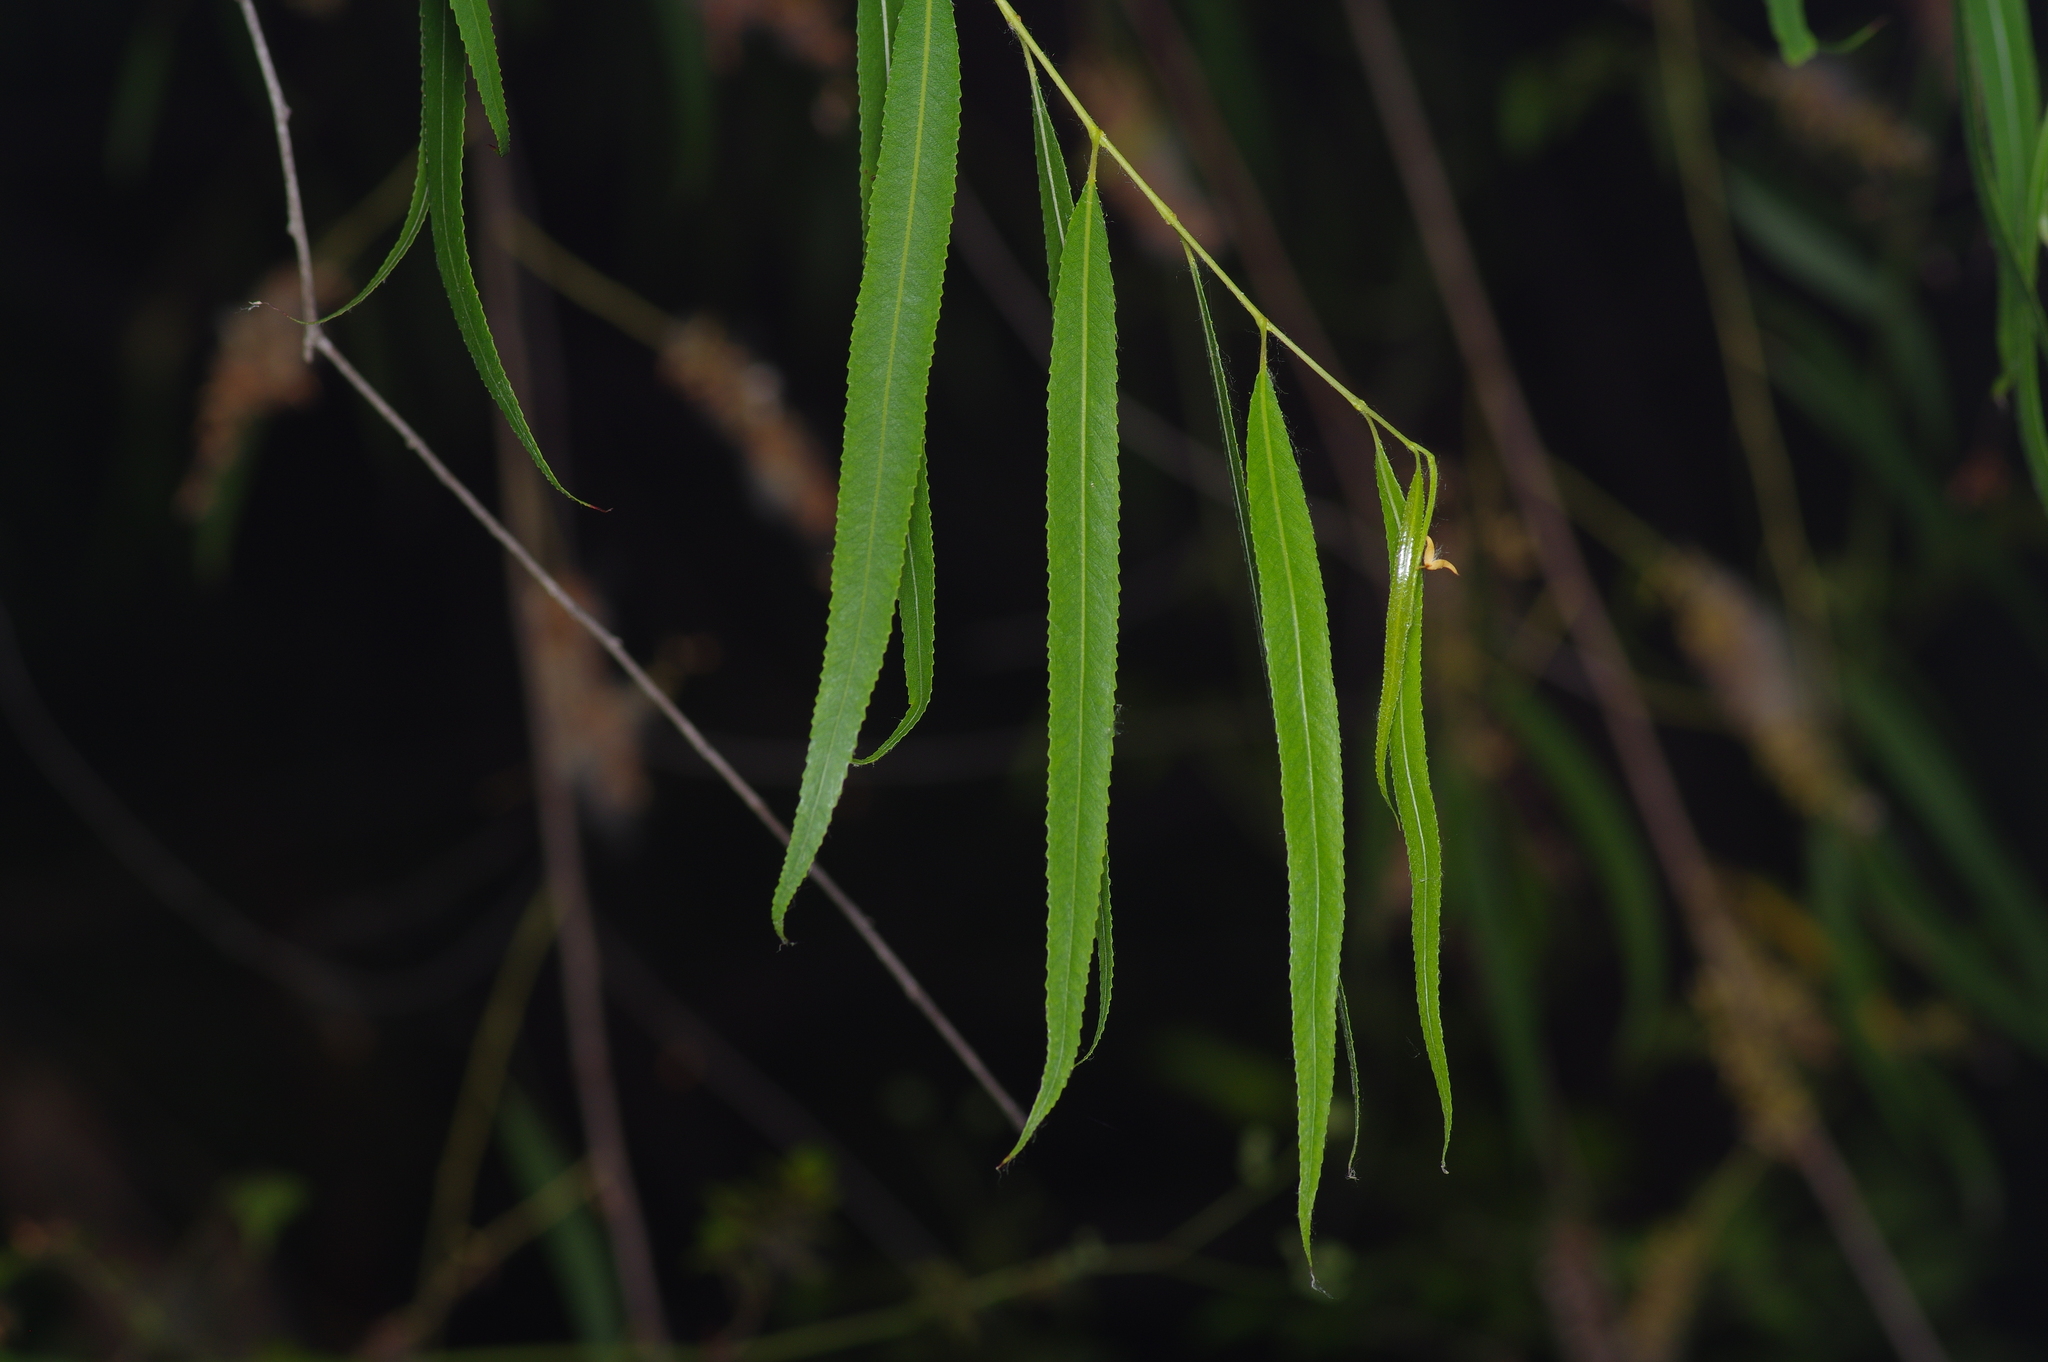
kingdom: Plantae
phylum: Tracheophyta
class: Magnoliopsida
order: Malpighiales
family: Salicaceae
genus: Salix
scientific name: Salix nigra
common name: Black willow
